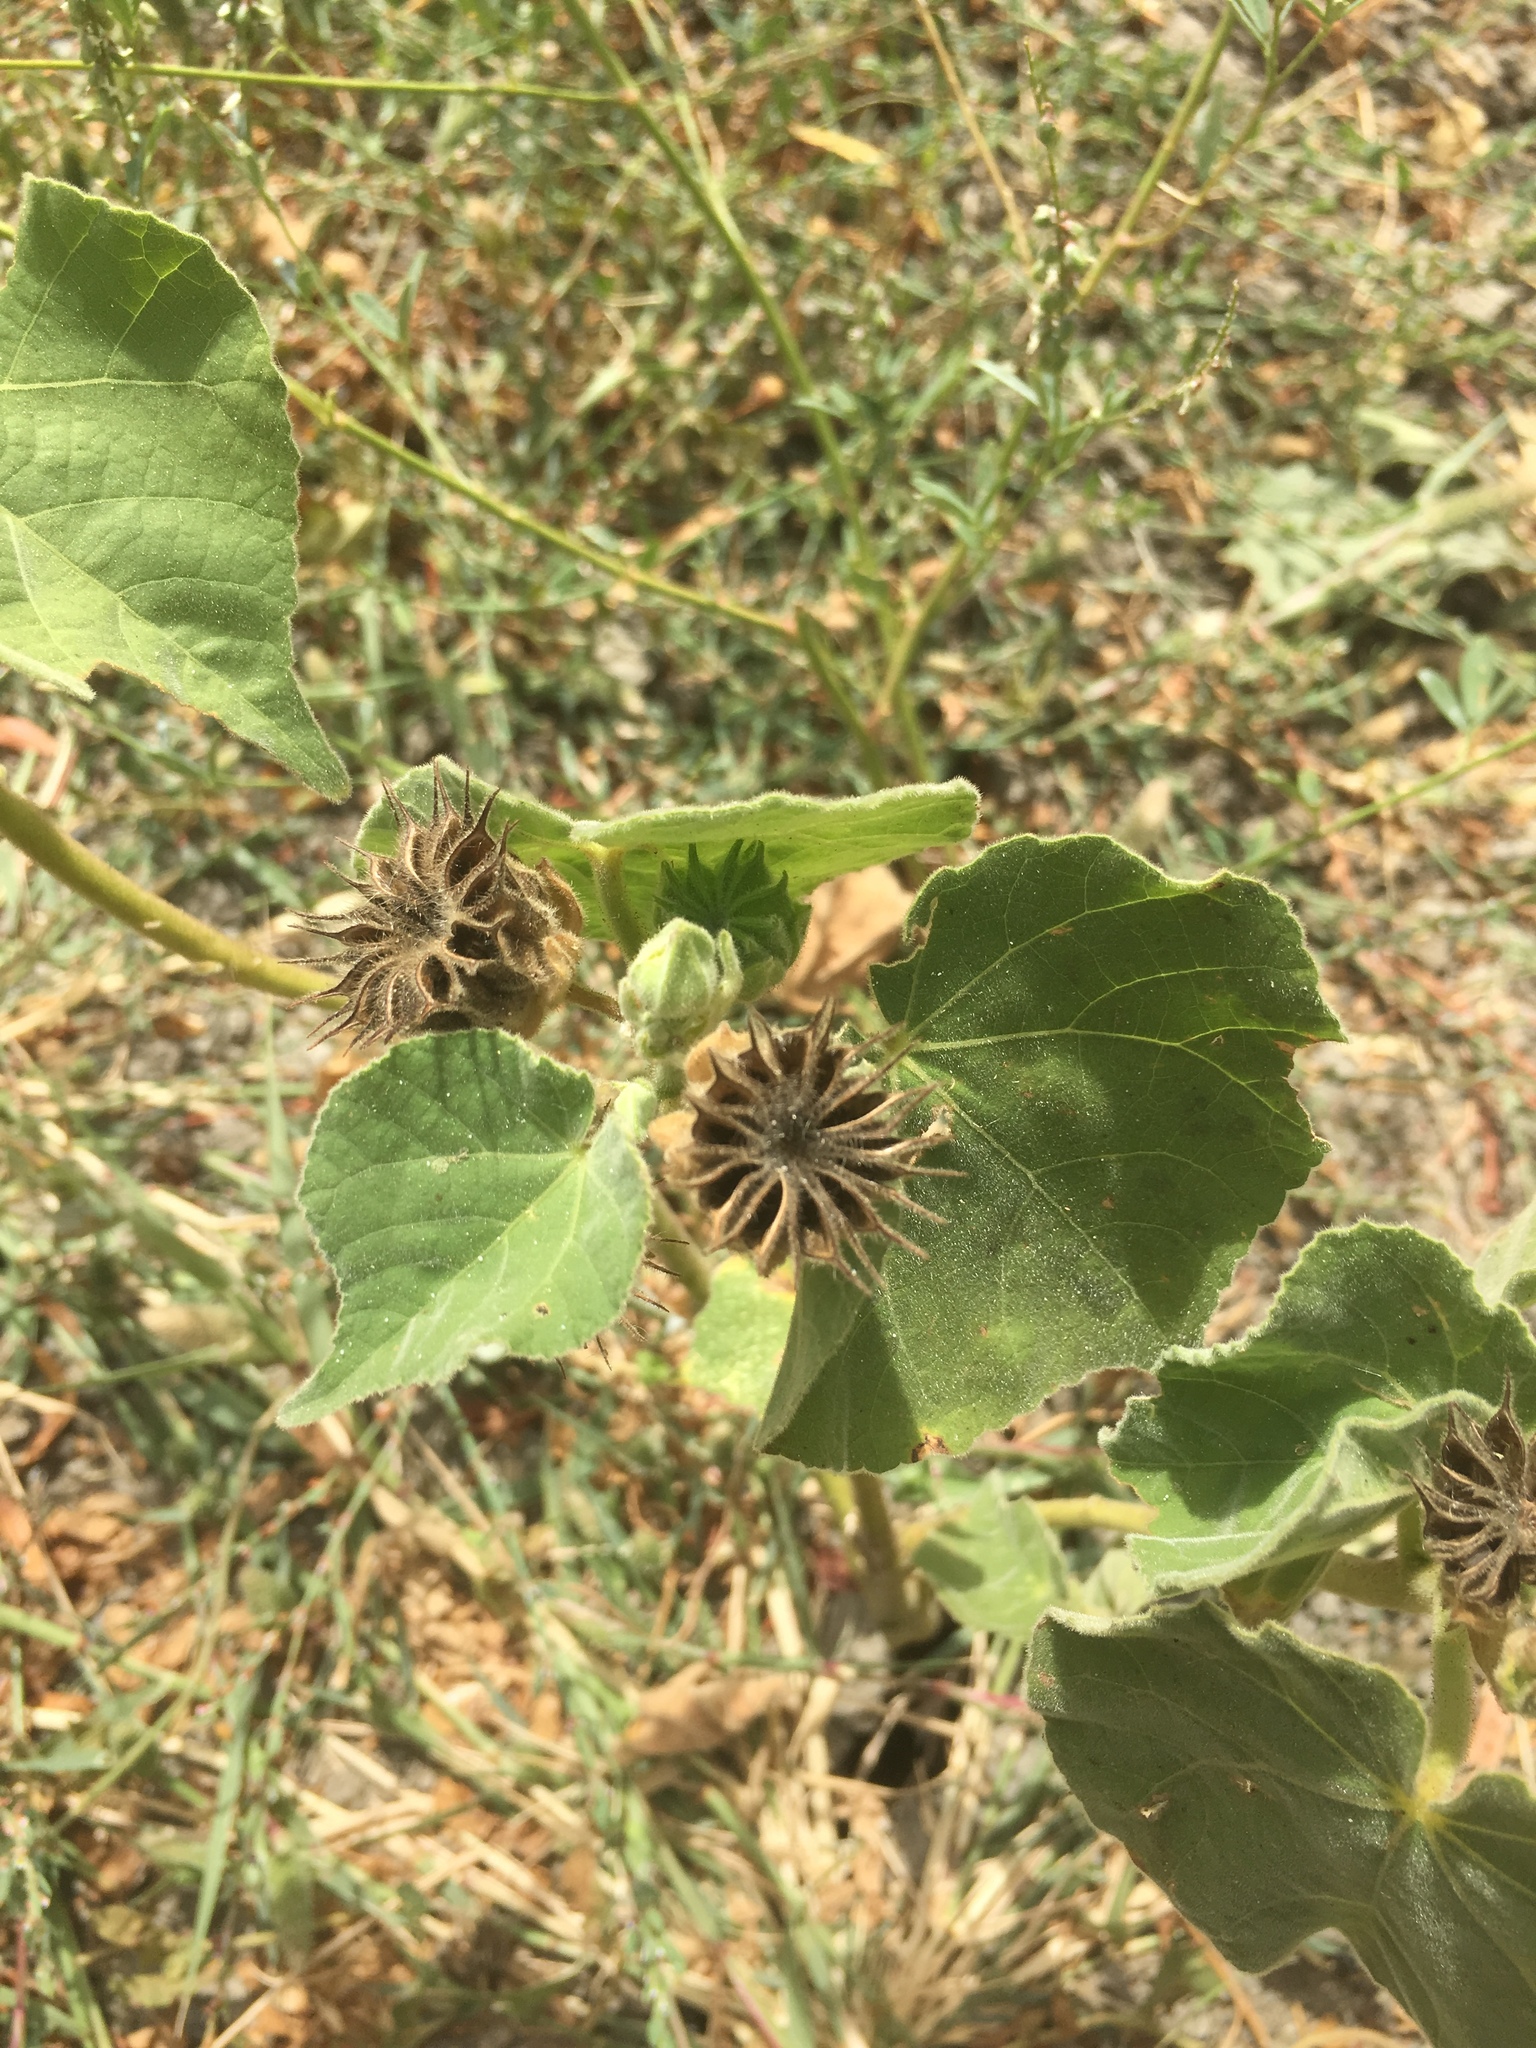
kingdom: Plantae
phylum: Tracheophyta
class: Magnoliopsida
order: Malvales
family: Malvaceae
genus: Abutilon
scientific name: Abutilon theophrasti
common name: Velvetleaf
